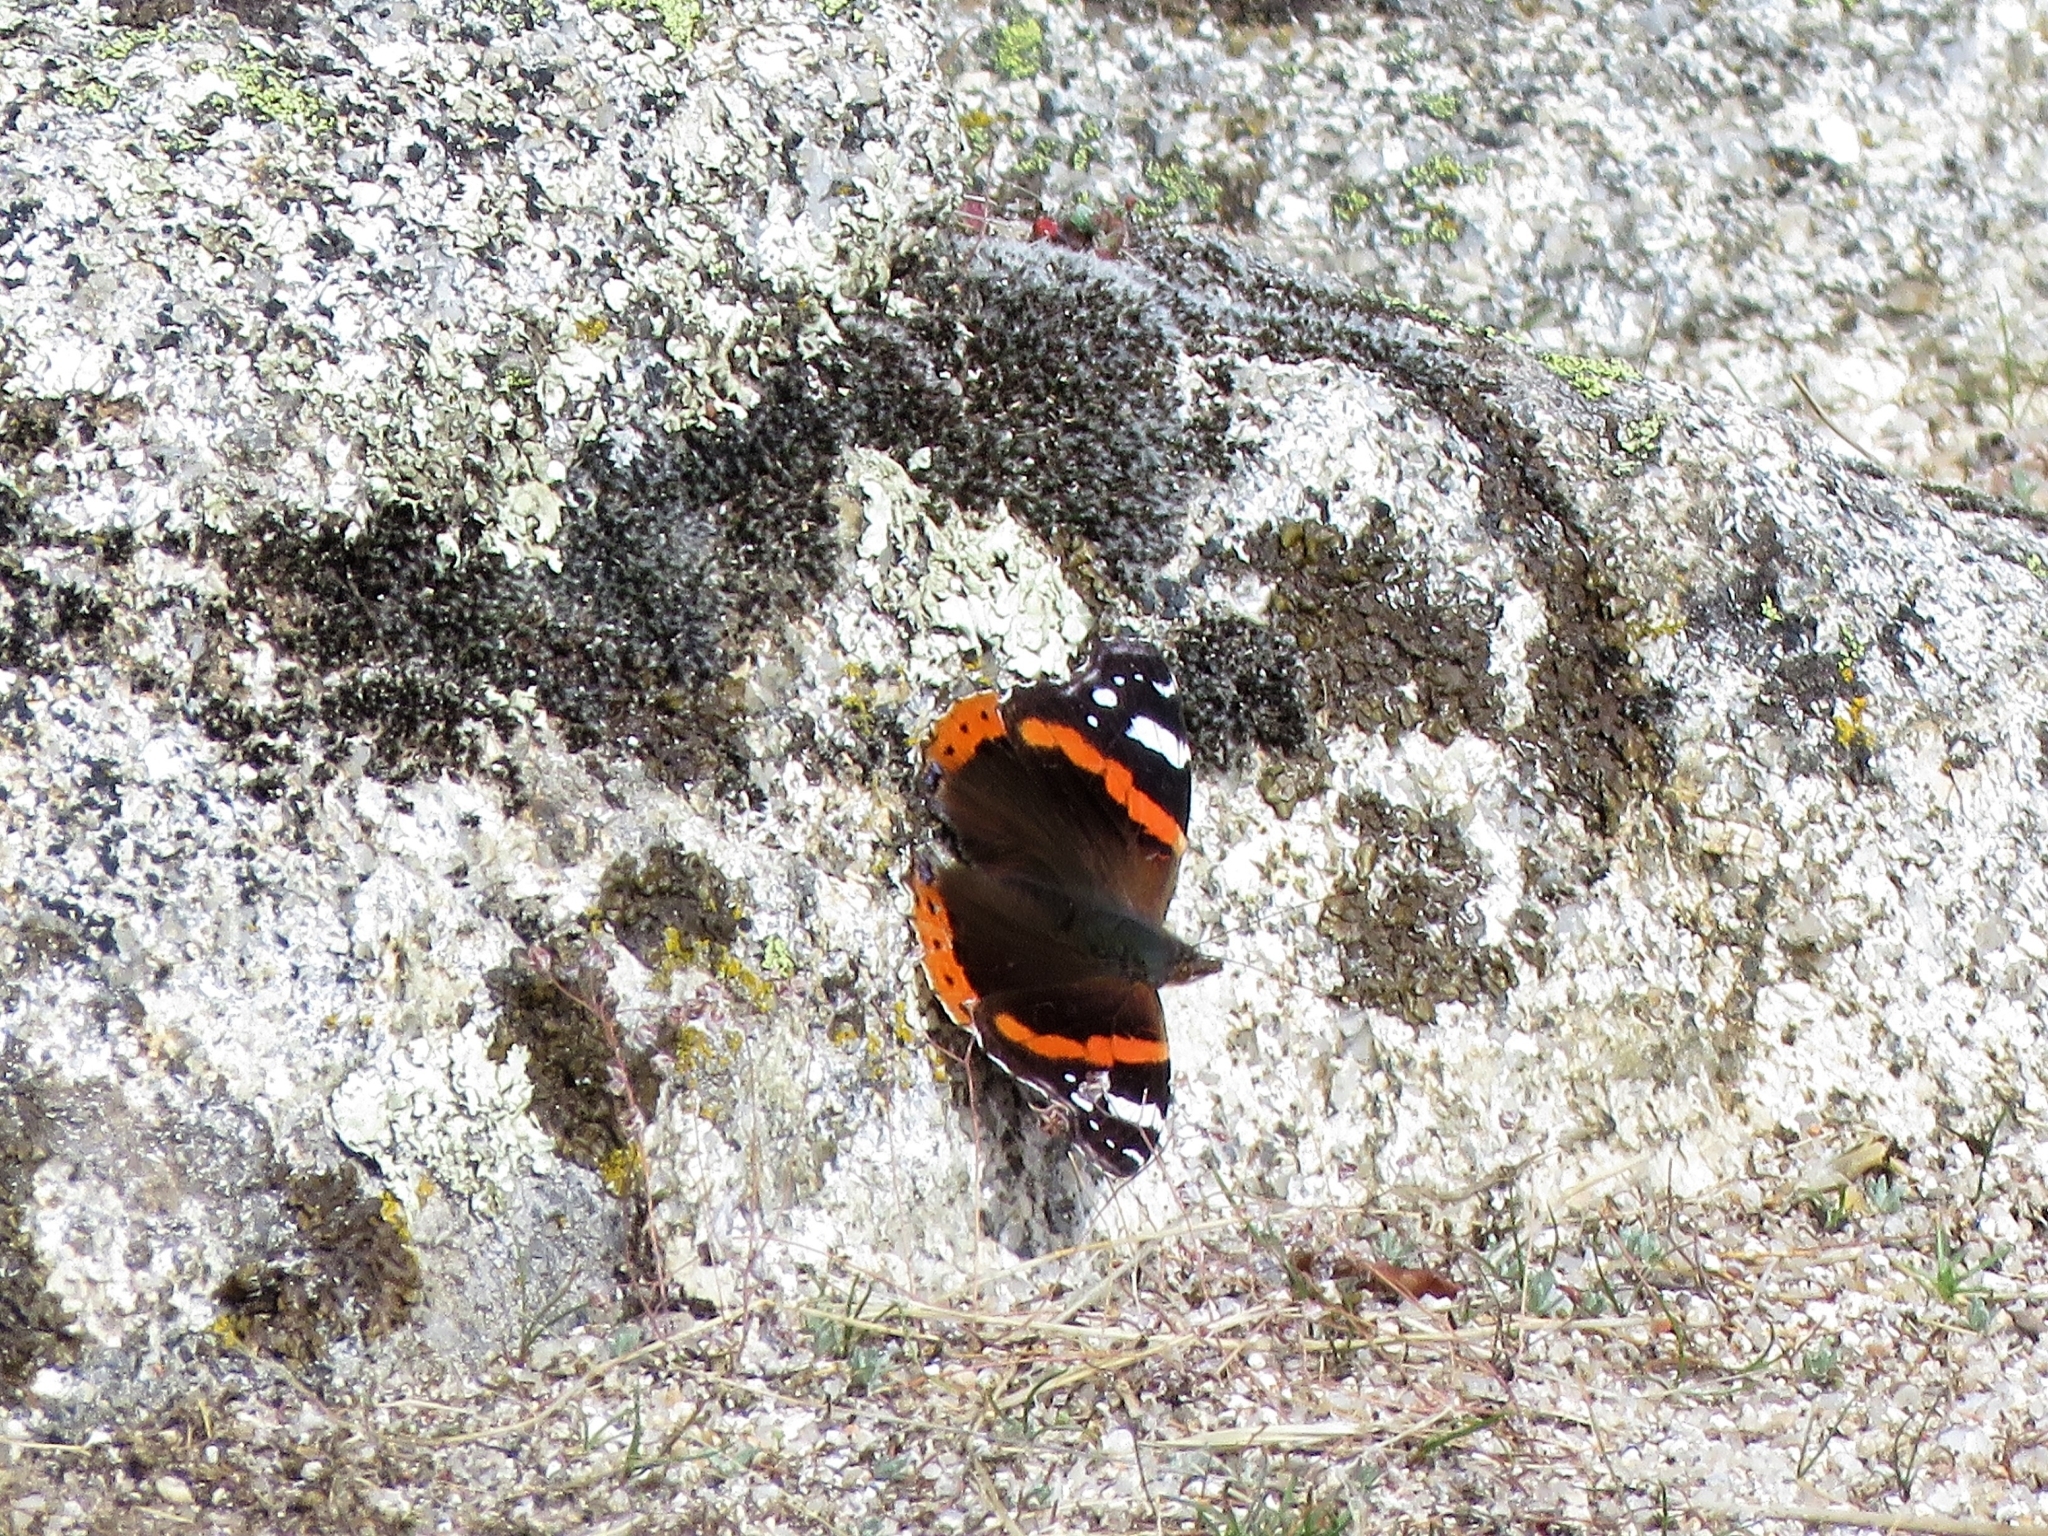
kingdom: Animalia
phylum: Arthropoda
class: Insecta
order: Lepidoptera
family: Nymphalidae
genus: Vanessa
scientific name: Vanessa atalanta
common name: Red admiral
